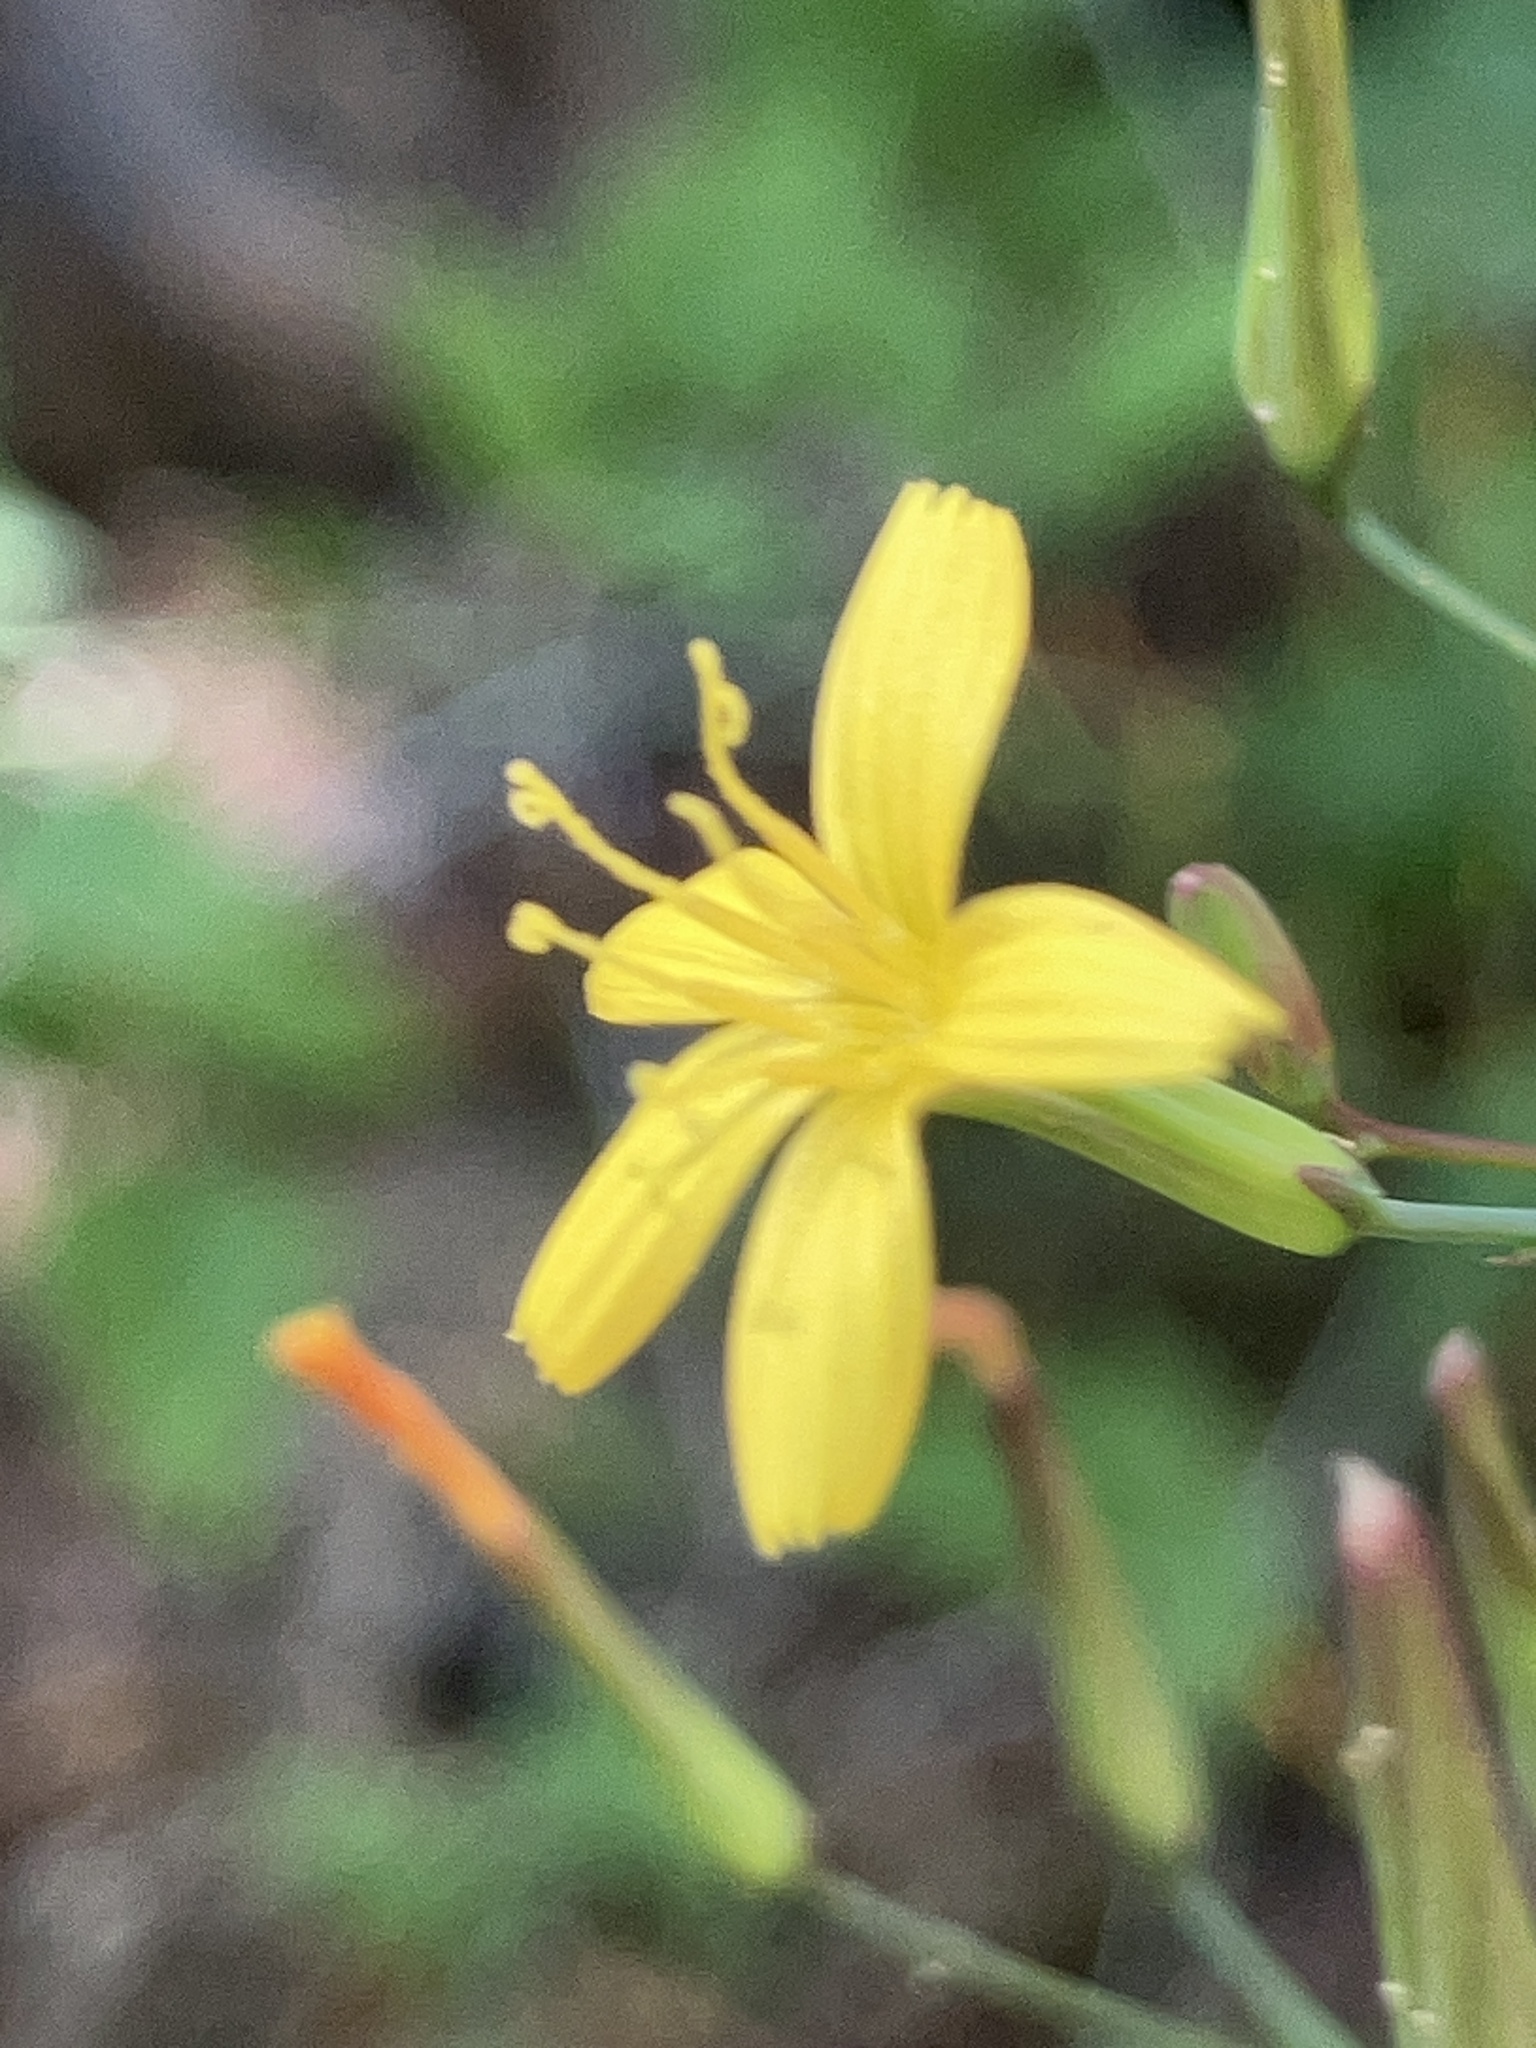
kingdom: Plantae
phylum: Tracheophyta
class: Magnoliopsida
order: Asterales
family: Asteraceae
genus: Mycelis
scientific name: Mycelis muralis
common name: Wall lettuce
